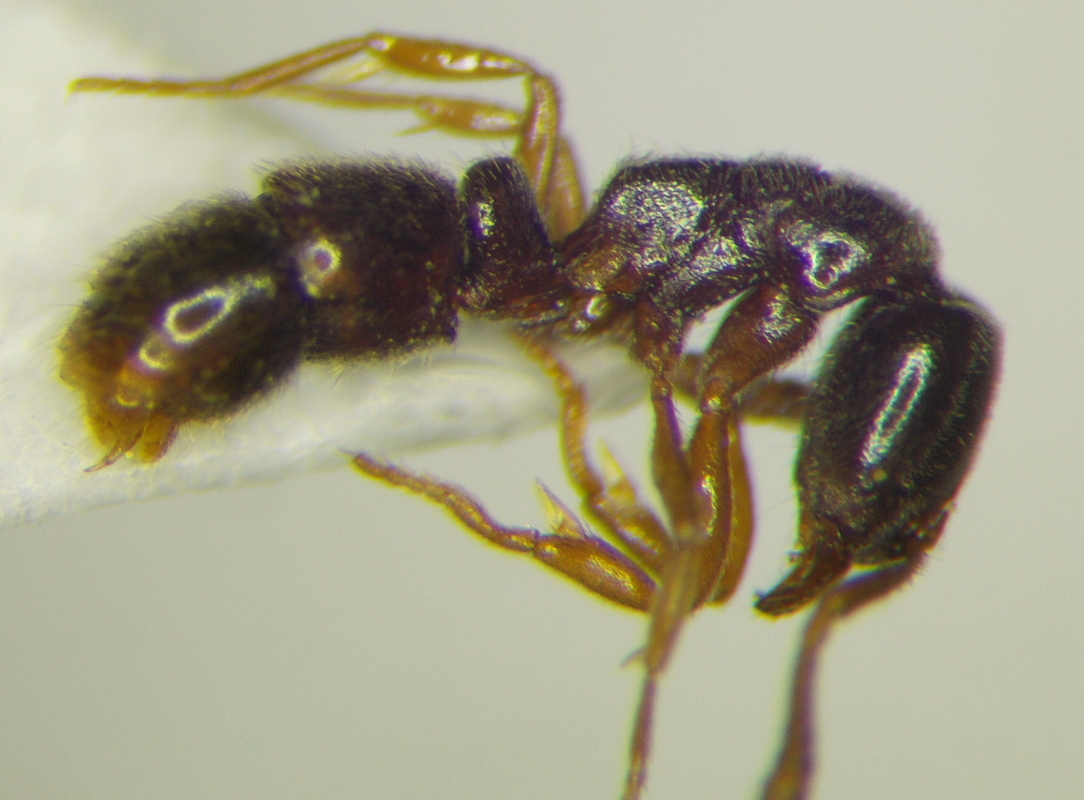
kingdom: Animalia
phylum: Arthropoda
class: Insecta
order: Hymenoptera
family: Formicidae
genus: Ponera
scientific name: Ponera coarctata
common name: Indolent ant
